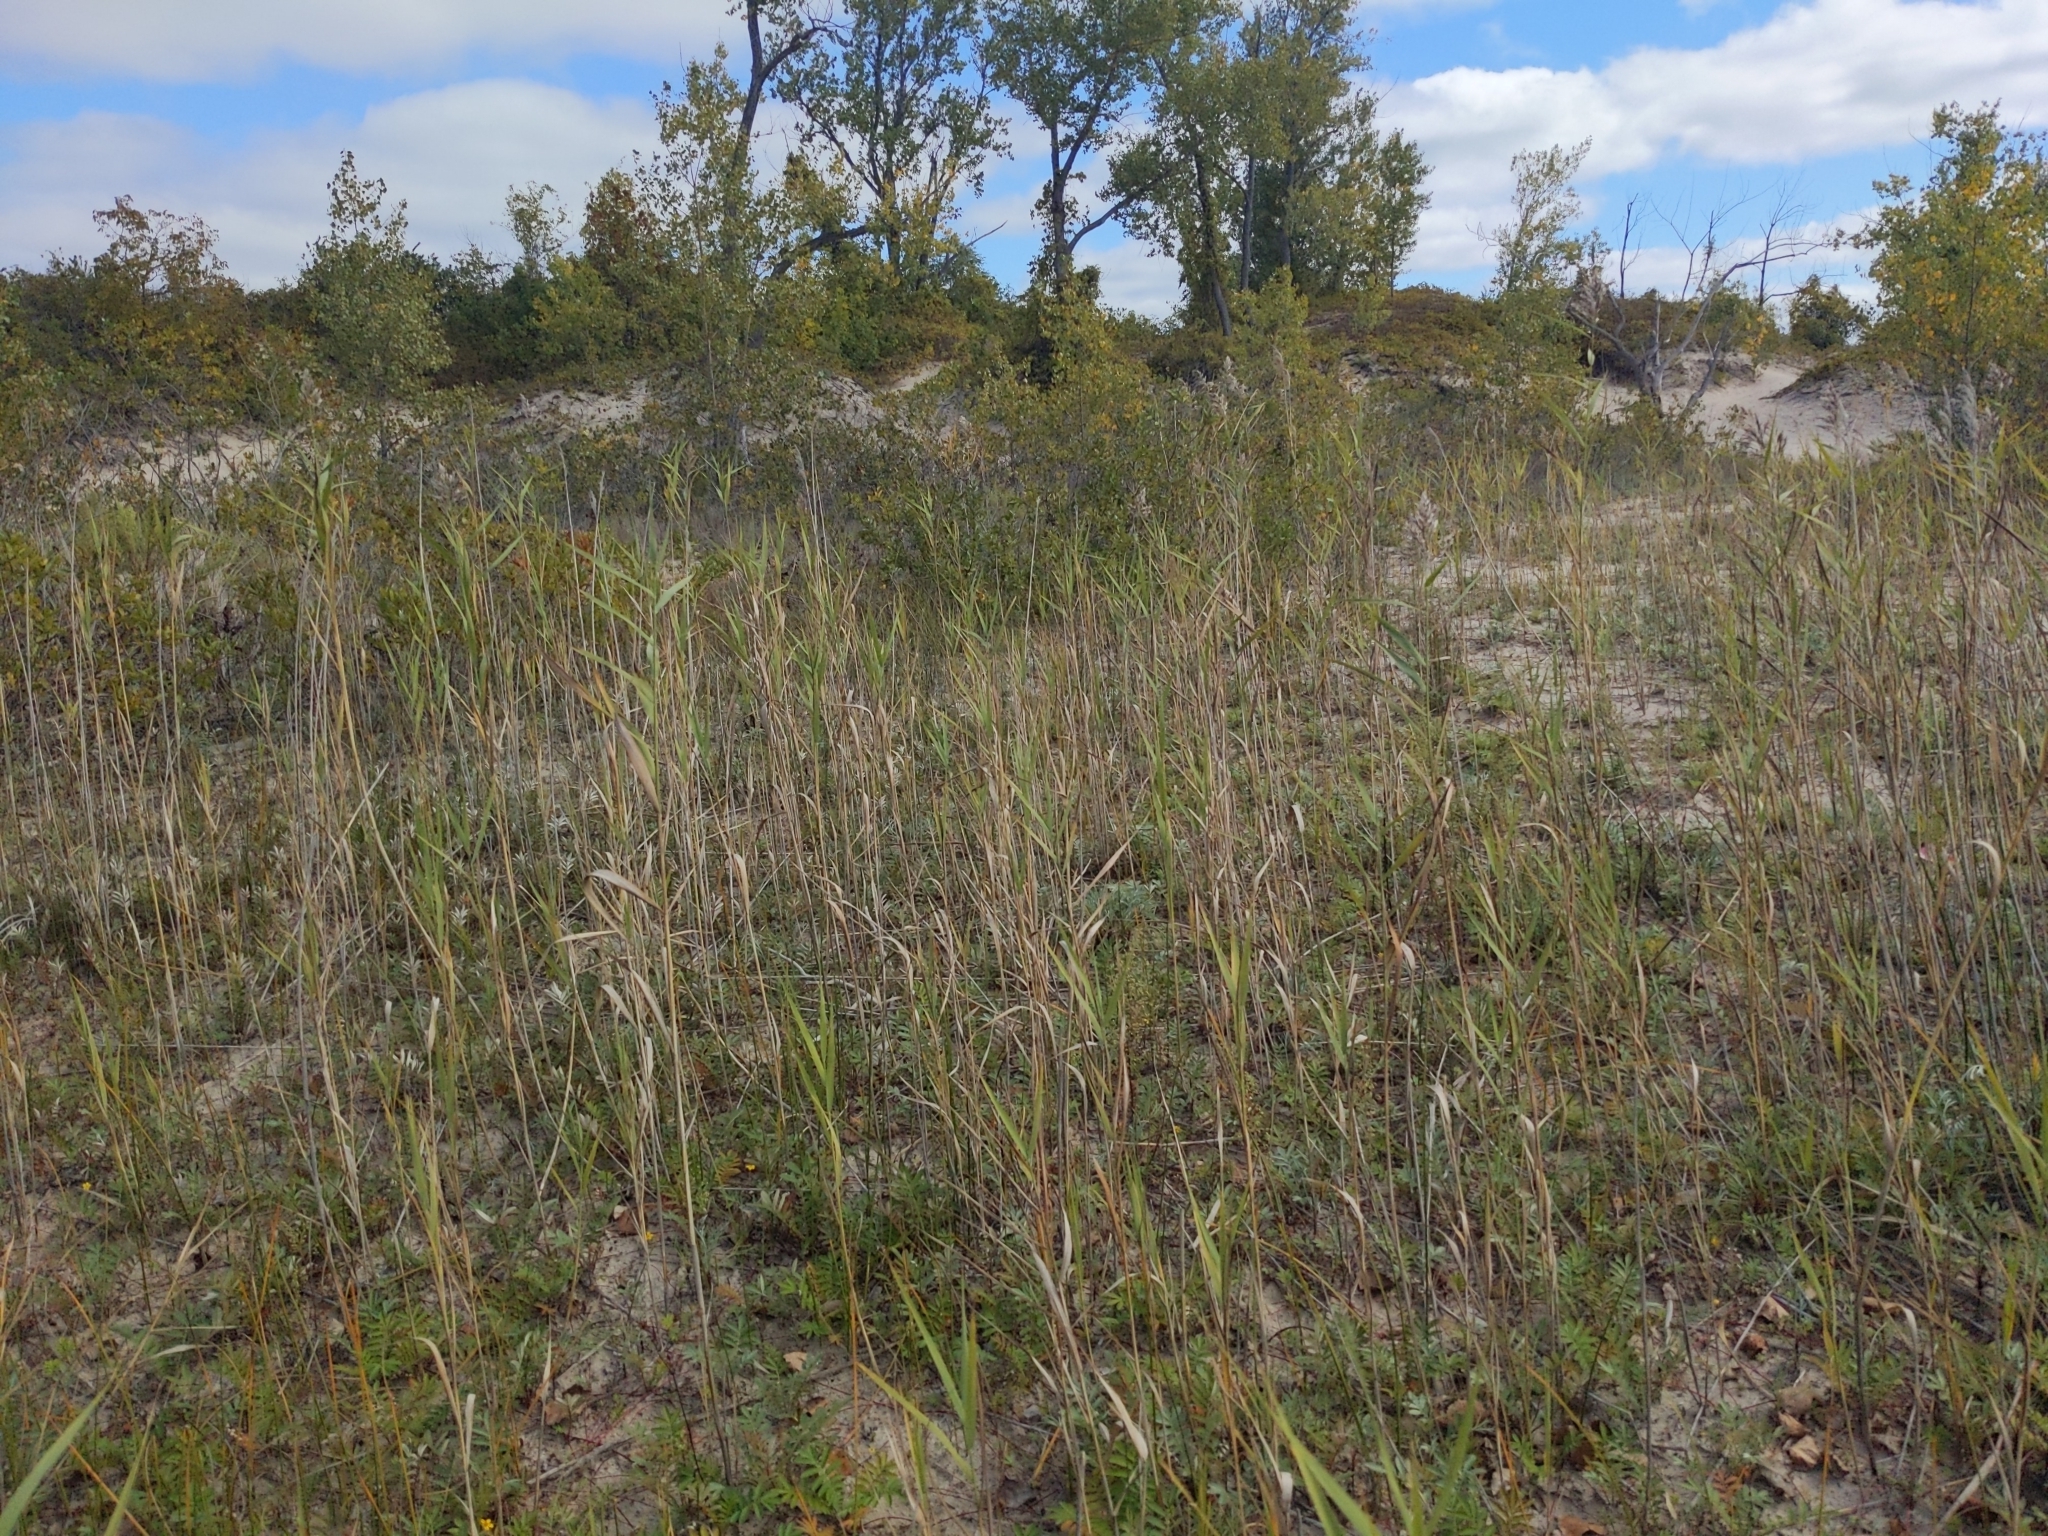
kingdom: Plantae
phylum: Tracheophyta
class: Liliopsida
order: Poales
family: Poaceae
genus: Phragmites
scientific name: Phragmites australis
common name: Common reed
